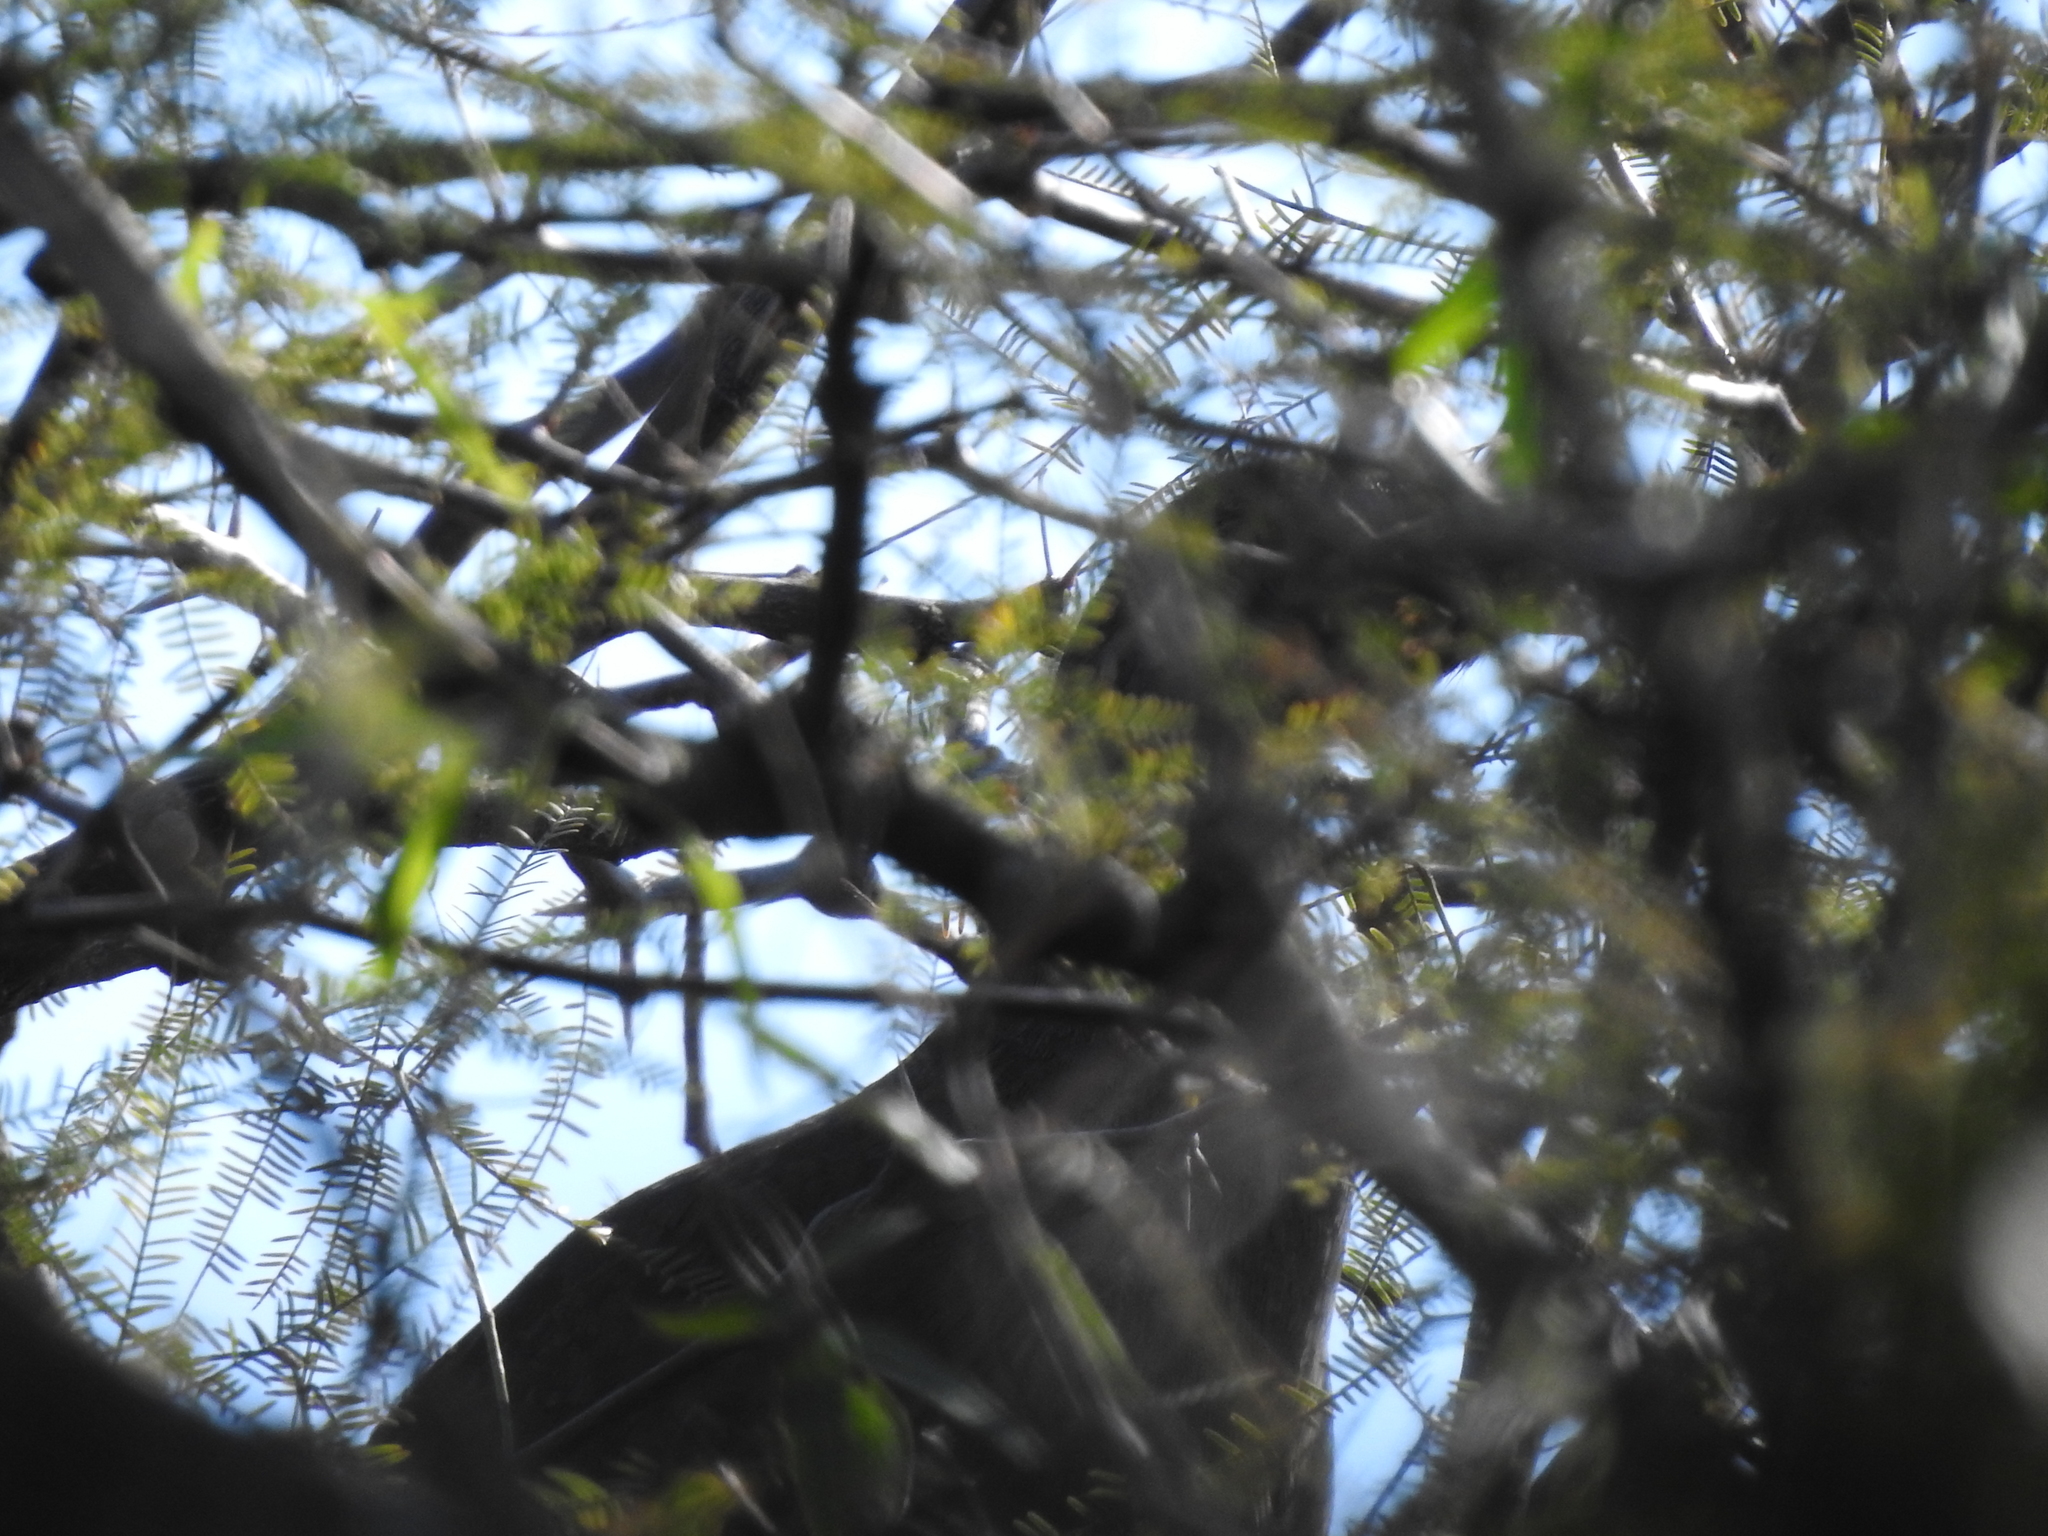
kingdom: Animalia
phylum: Chordata
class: Aves
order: Galliformes
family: Cracidae
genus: Ortalis
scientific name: Ortalis canicollis
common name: Chaco chachalaca
